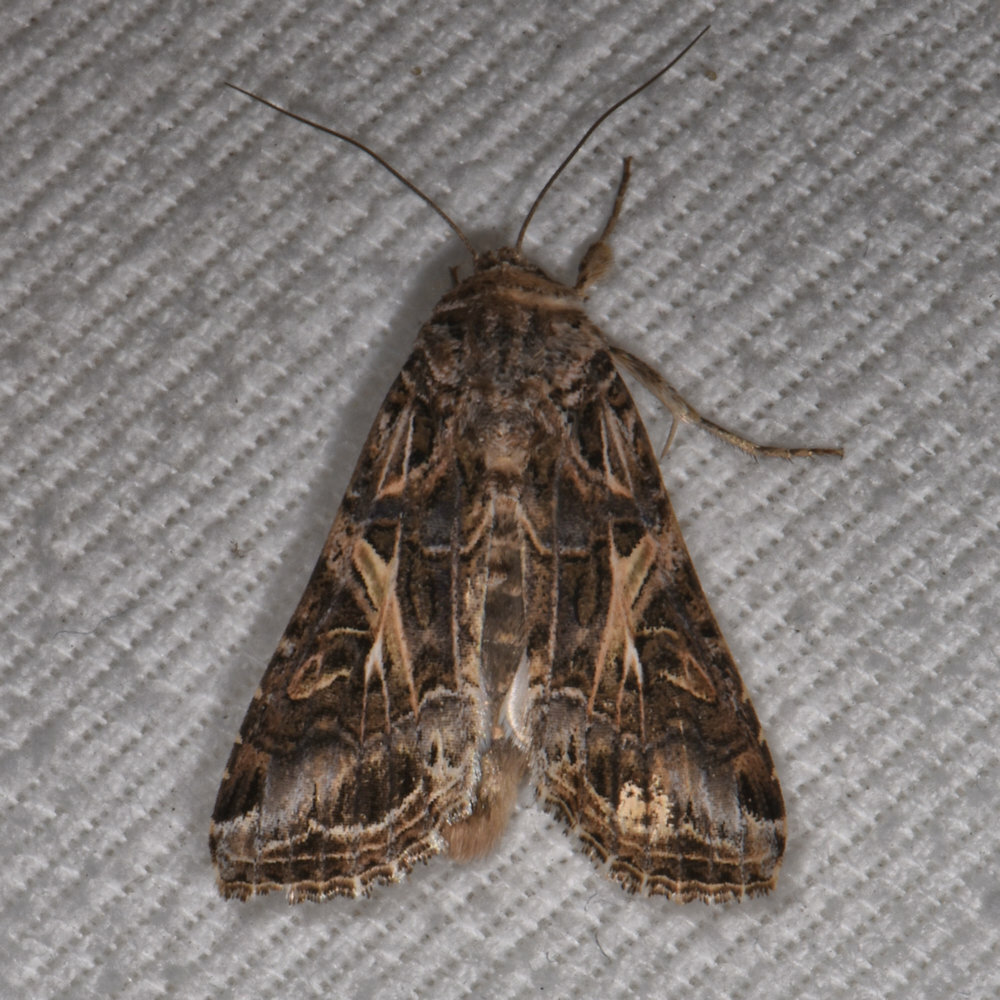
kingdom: Animalia
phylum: Arthropoda
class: Insecta
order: Lepidoptera
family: Noctuidae
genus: Spodoptera
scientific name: Spodoptera ornithogalli
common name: Yellow-striped armyworm
